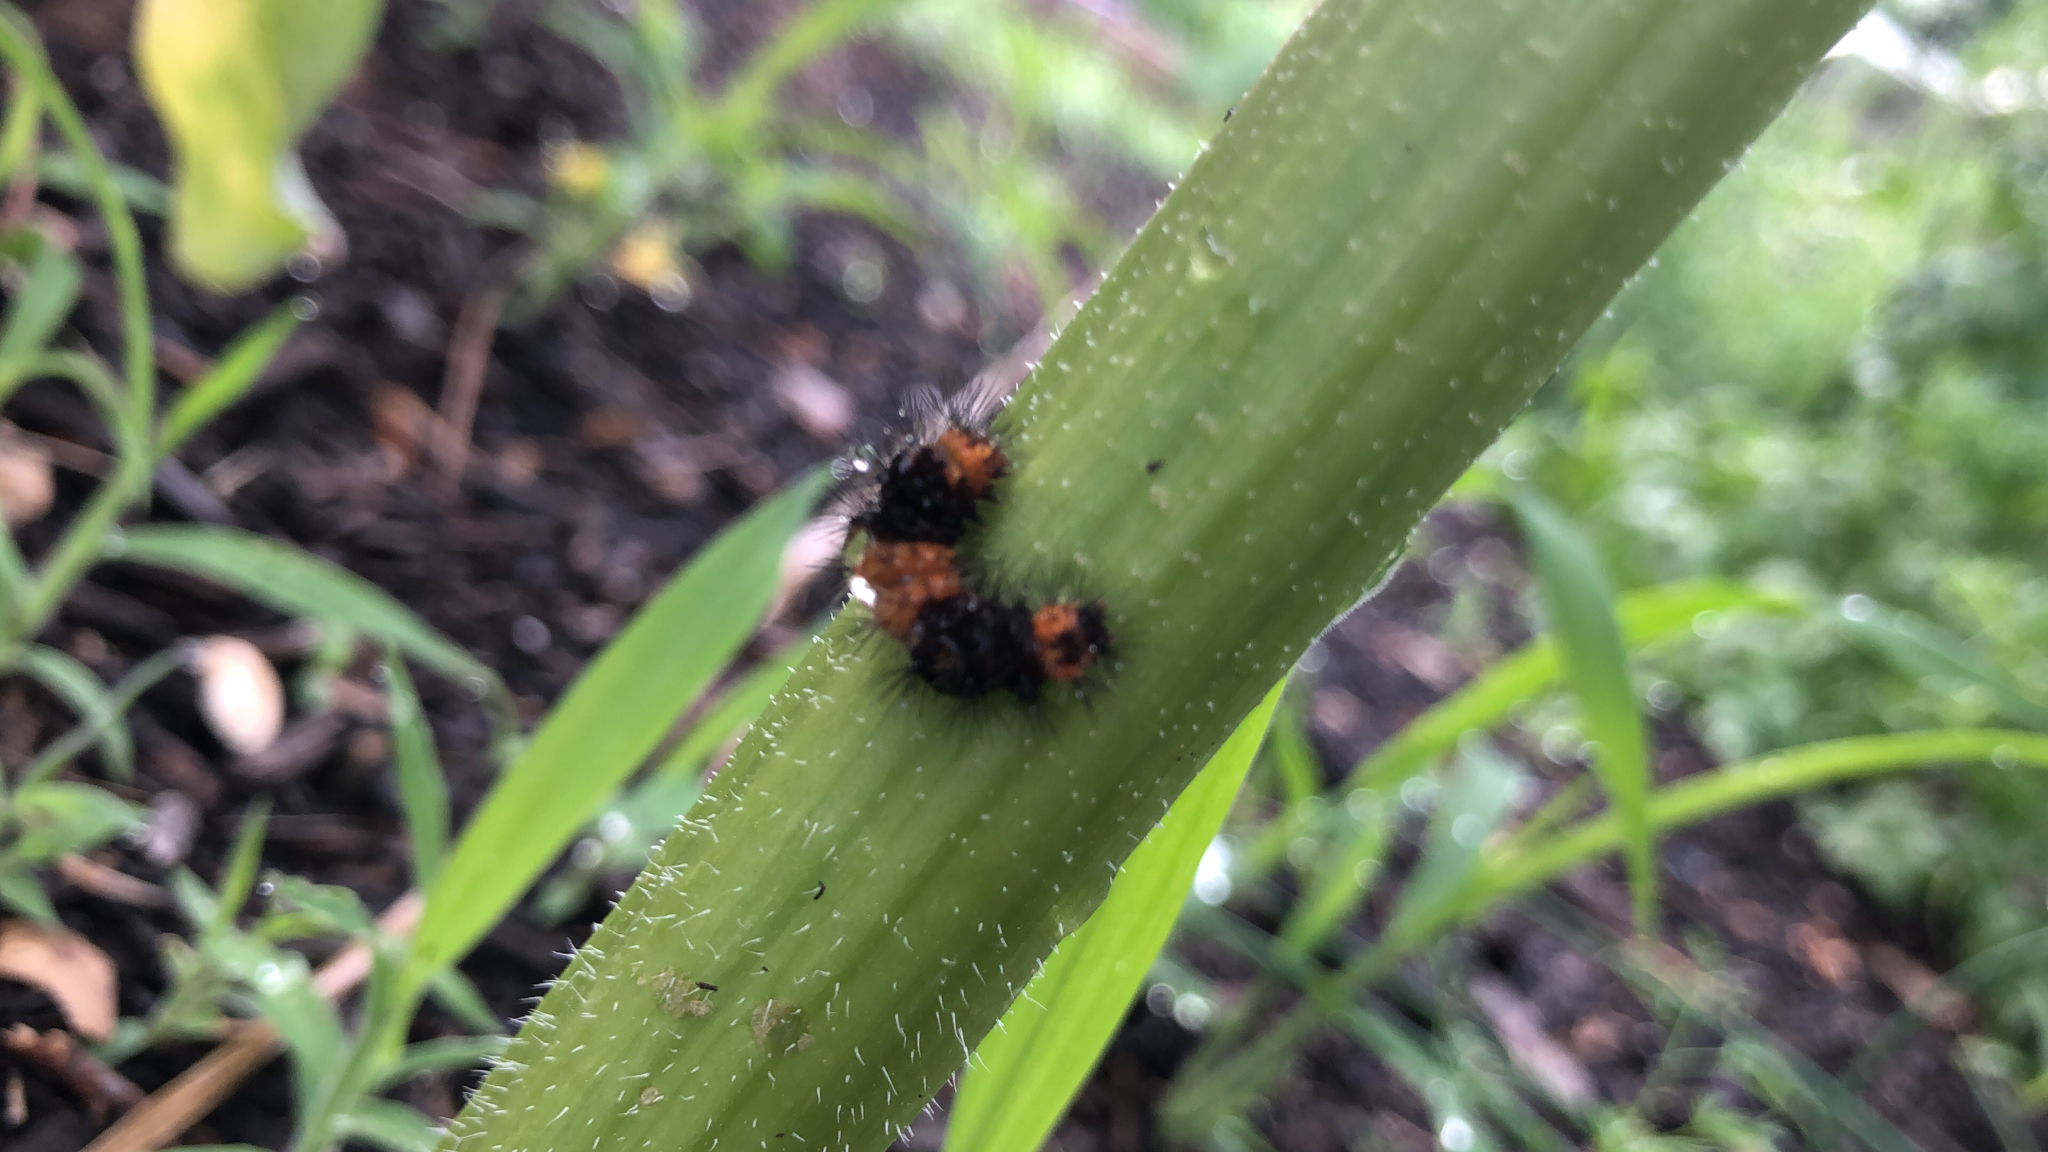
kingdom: Animalia
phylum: Arthropoda
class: Insecta
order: Lepidoptera
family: Erebidae
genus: Hypercompe
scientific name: Hypercompe scribonia
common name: Giant leopard moth
